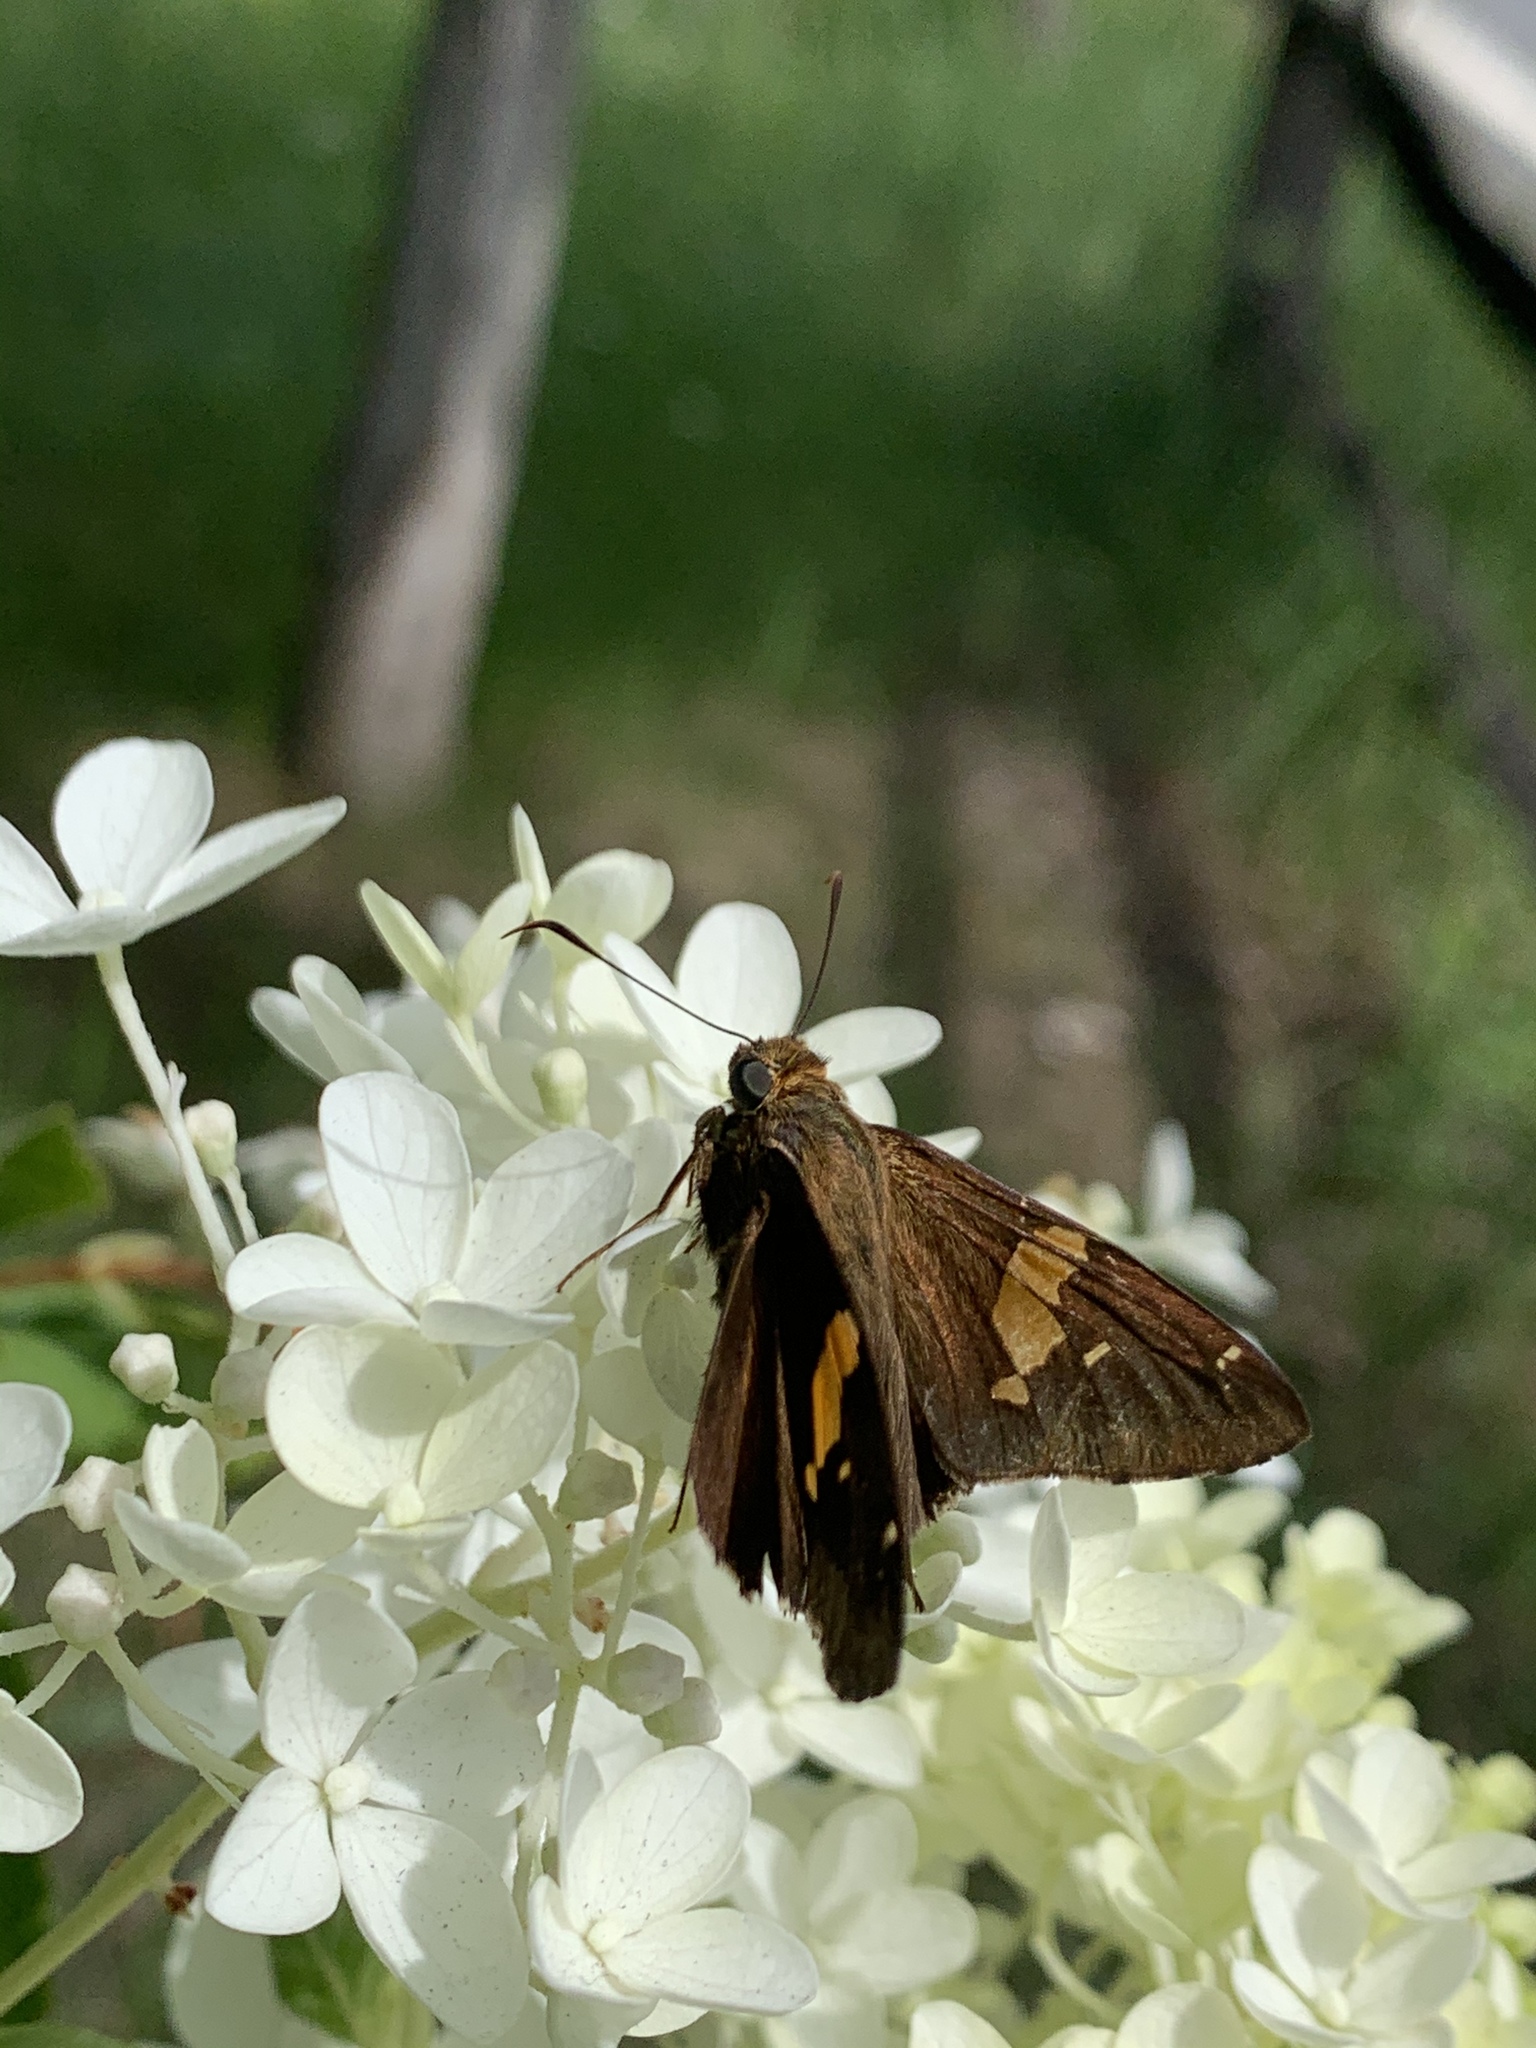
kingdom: Animalia
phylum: Arthropoda
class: Insecta
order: Lepidoptera
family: Hesperiidae
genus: Epargyreus
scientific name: Epargyreus clarus
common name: Silver-spotted skipper
